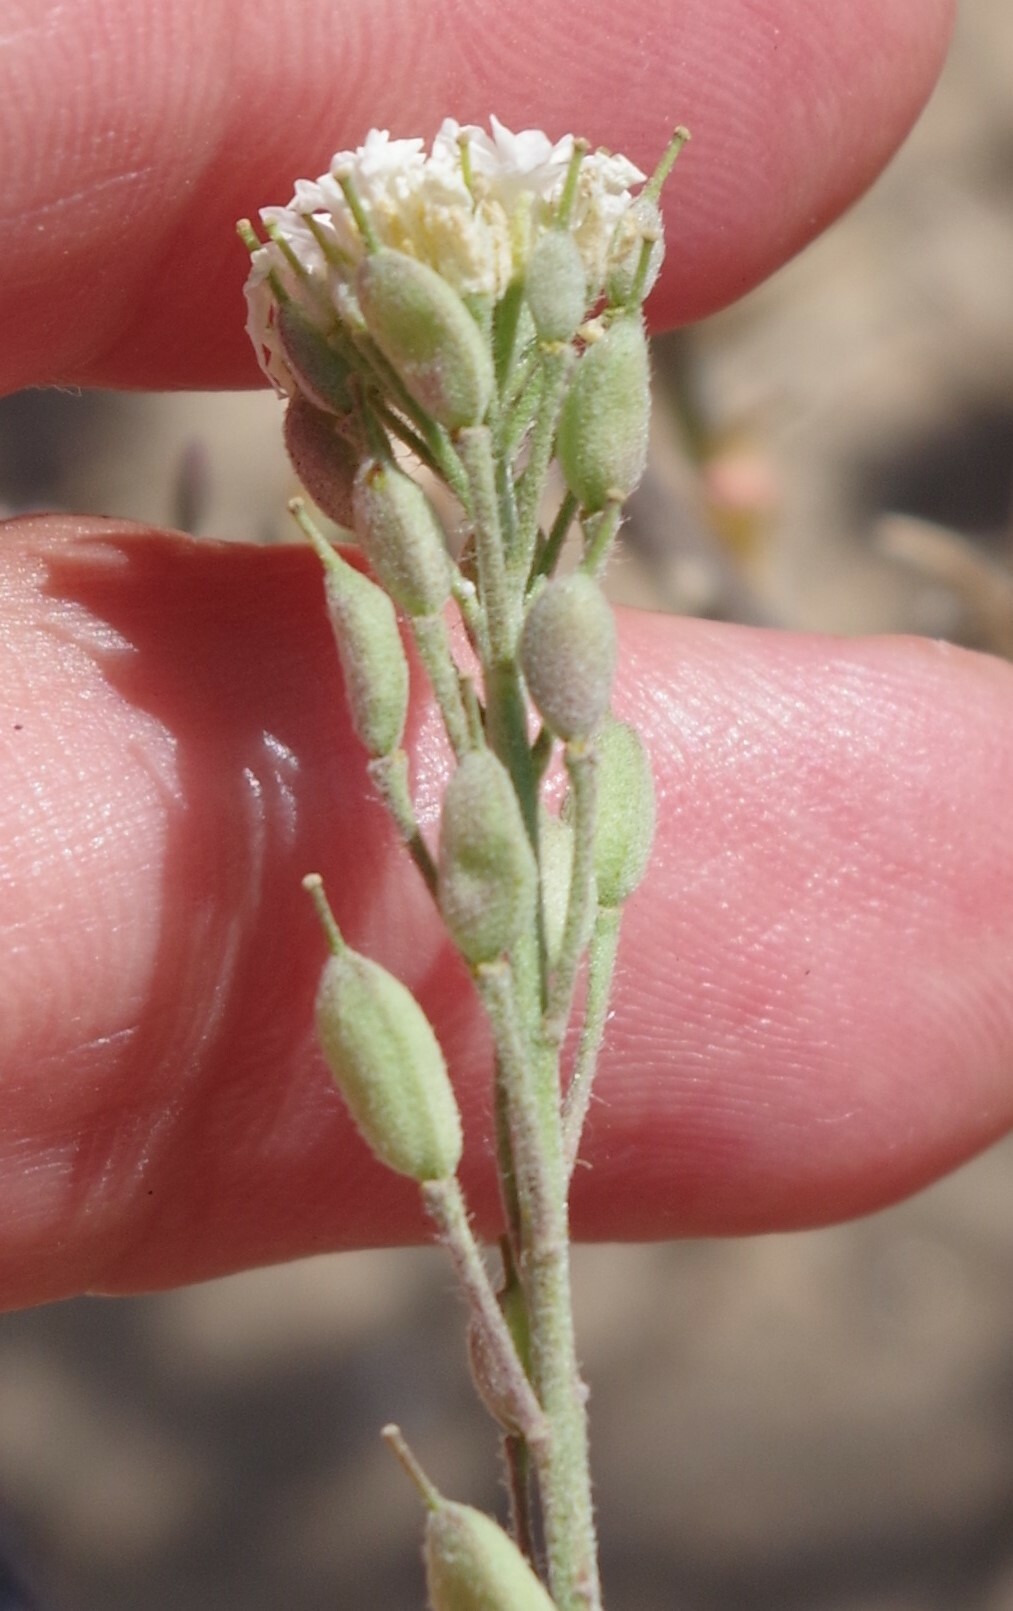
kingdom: Plantae
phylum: Tracheophyta
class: Magnoliopsida
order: Brassicales
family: Brassicaceae
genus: Berteroa
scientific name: Berteroa incana
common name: Hoary alison
